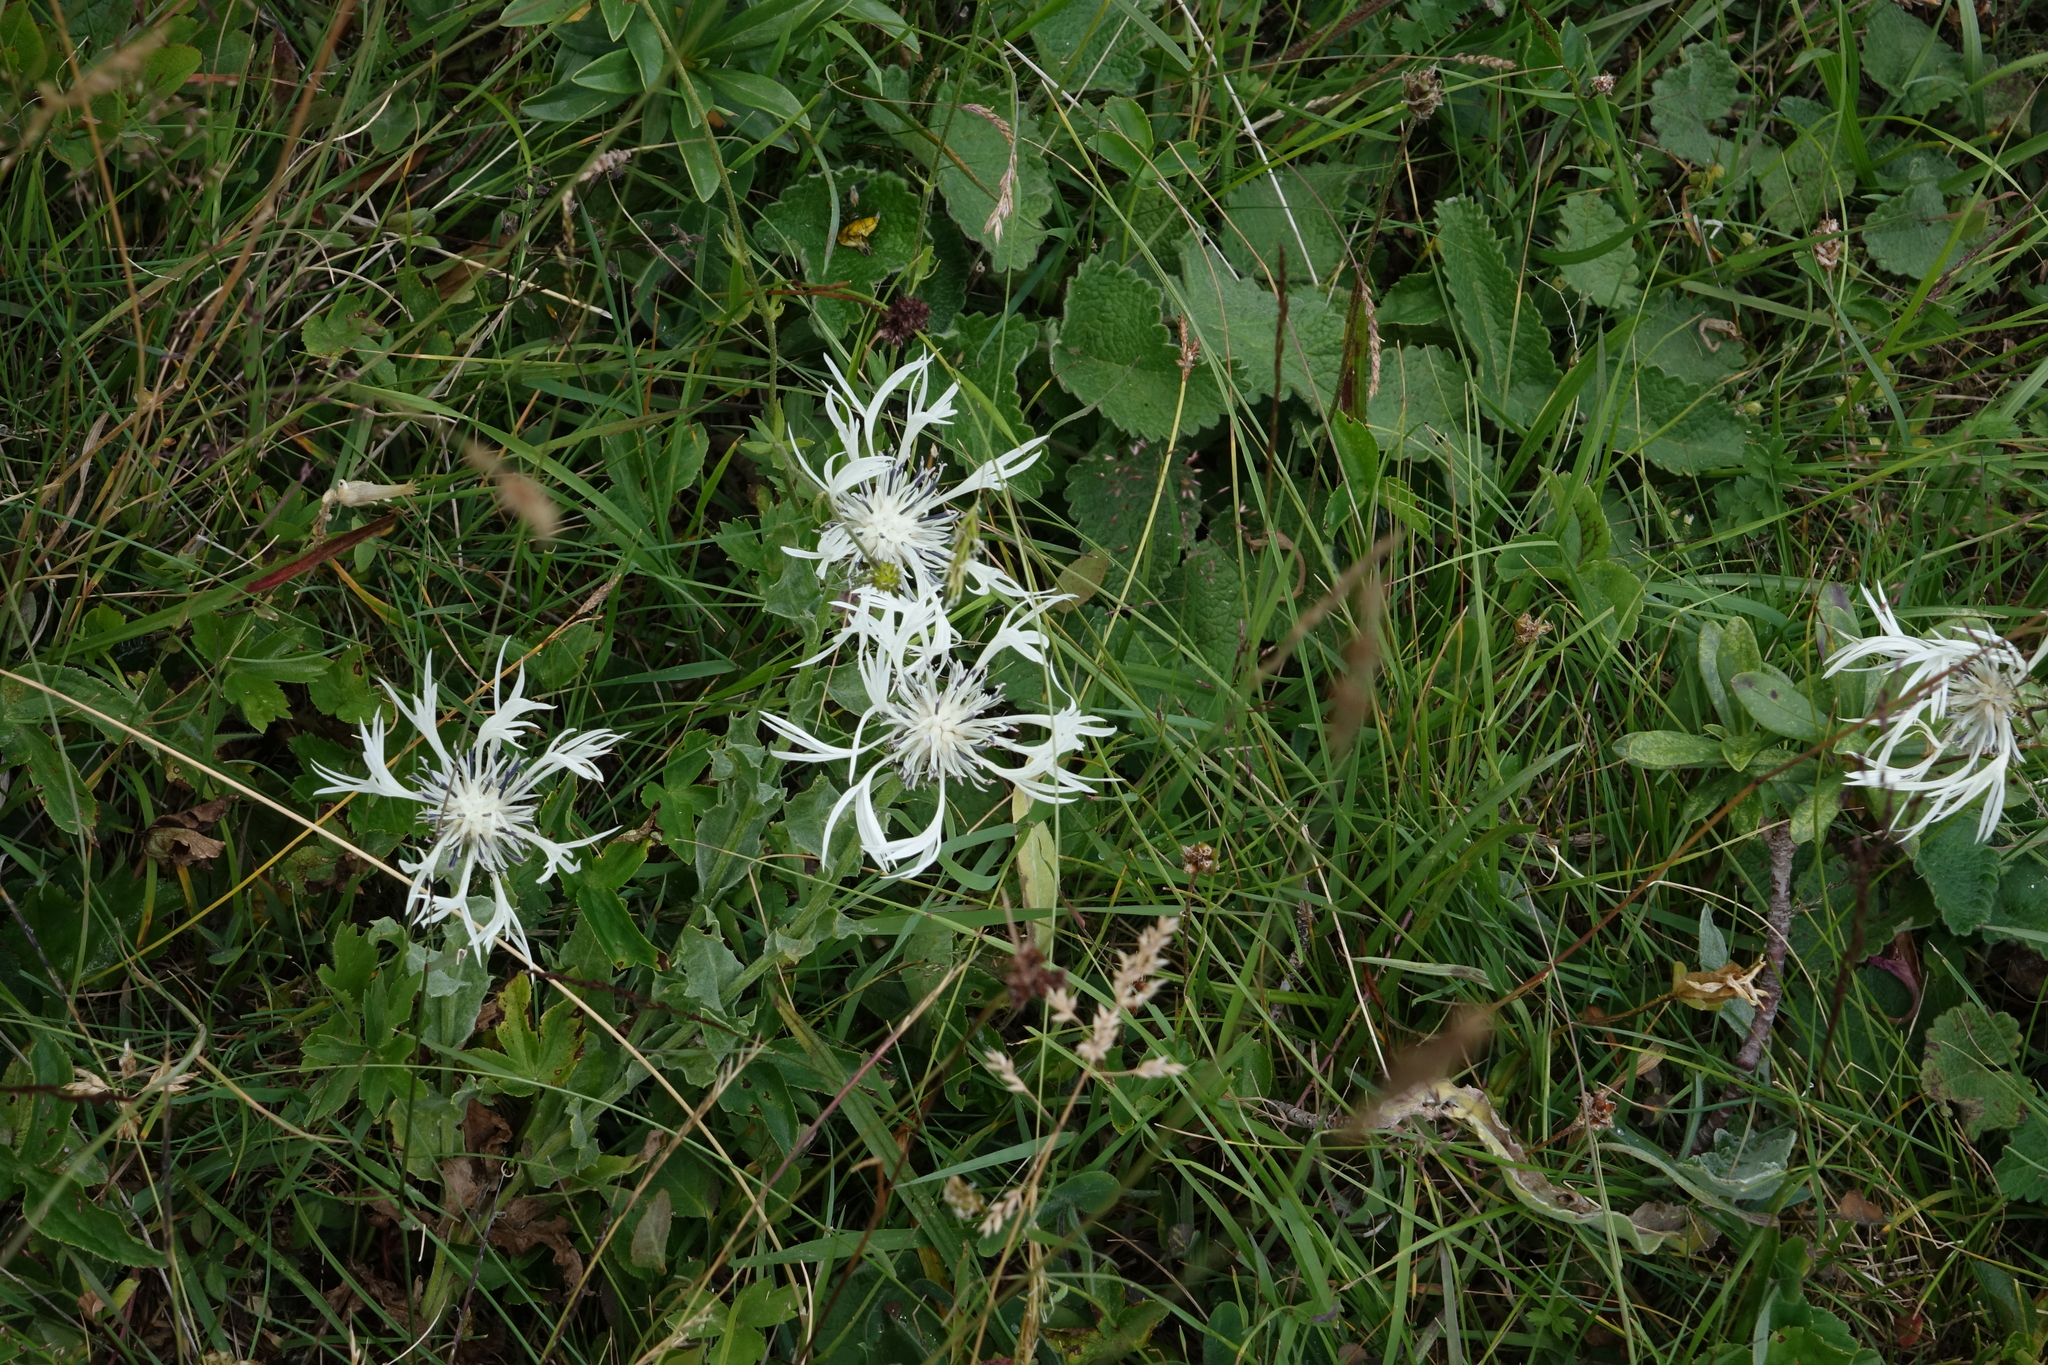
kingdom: Plantae
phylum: Tracheophyta
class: Magnoliopsida
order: Asterales
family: Asteraceae
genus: Centaurea
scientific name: Centaurea cheiranthifolia
